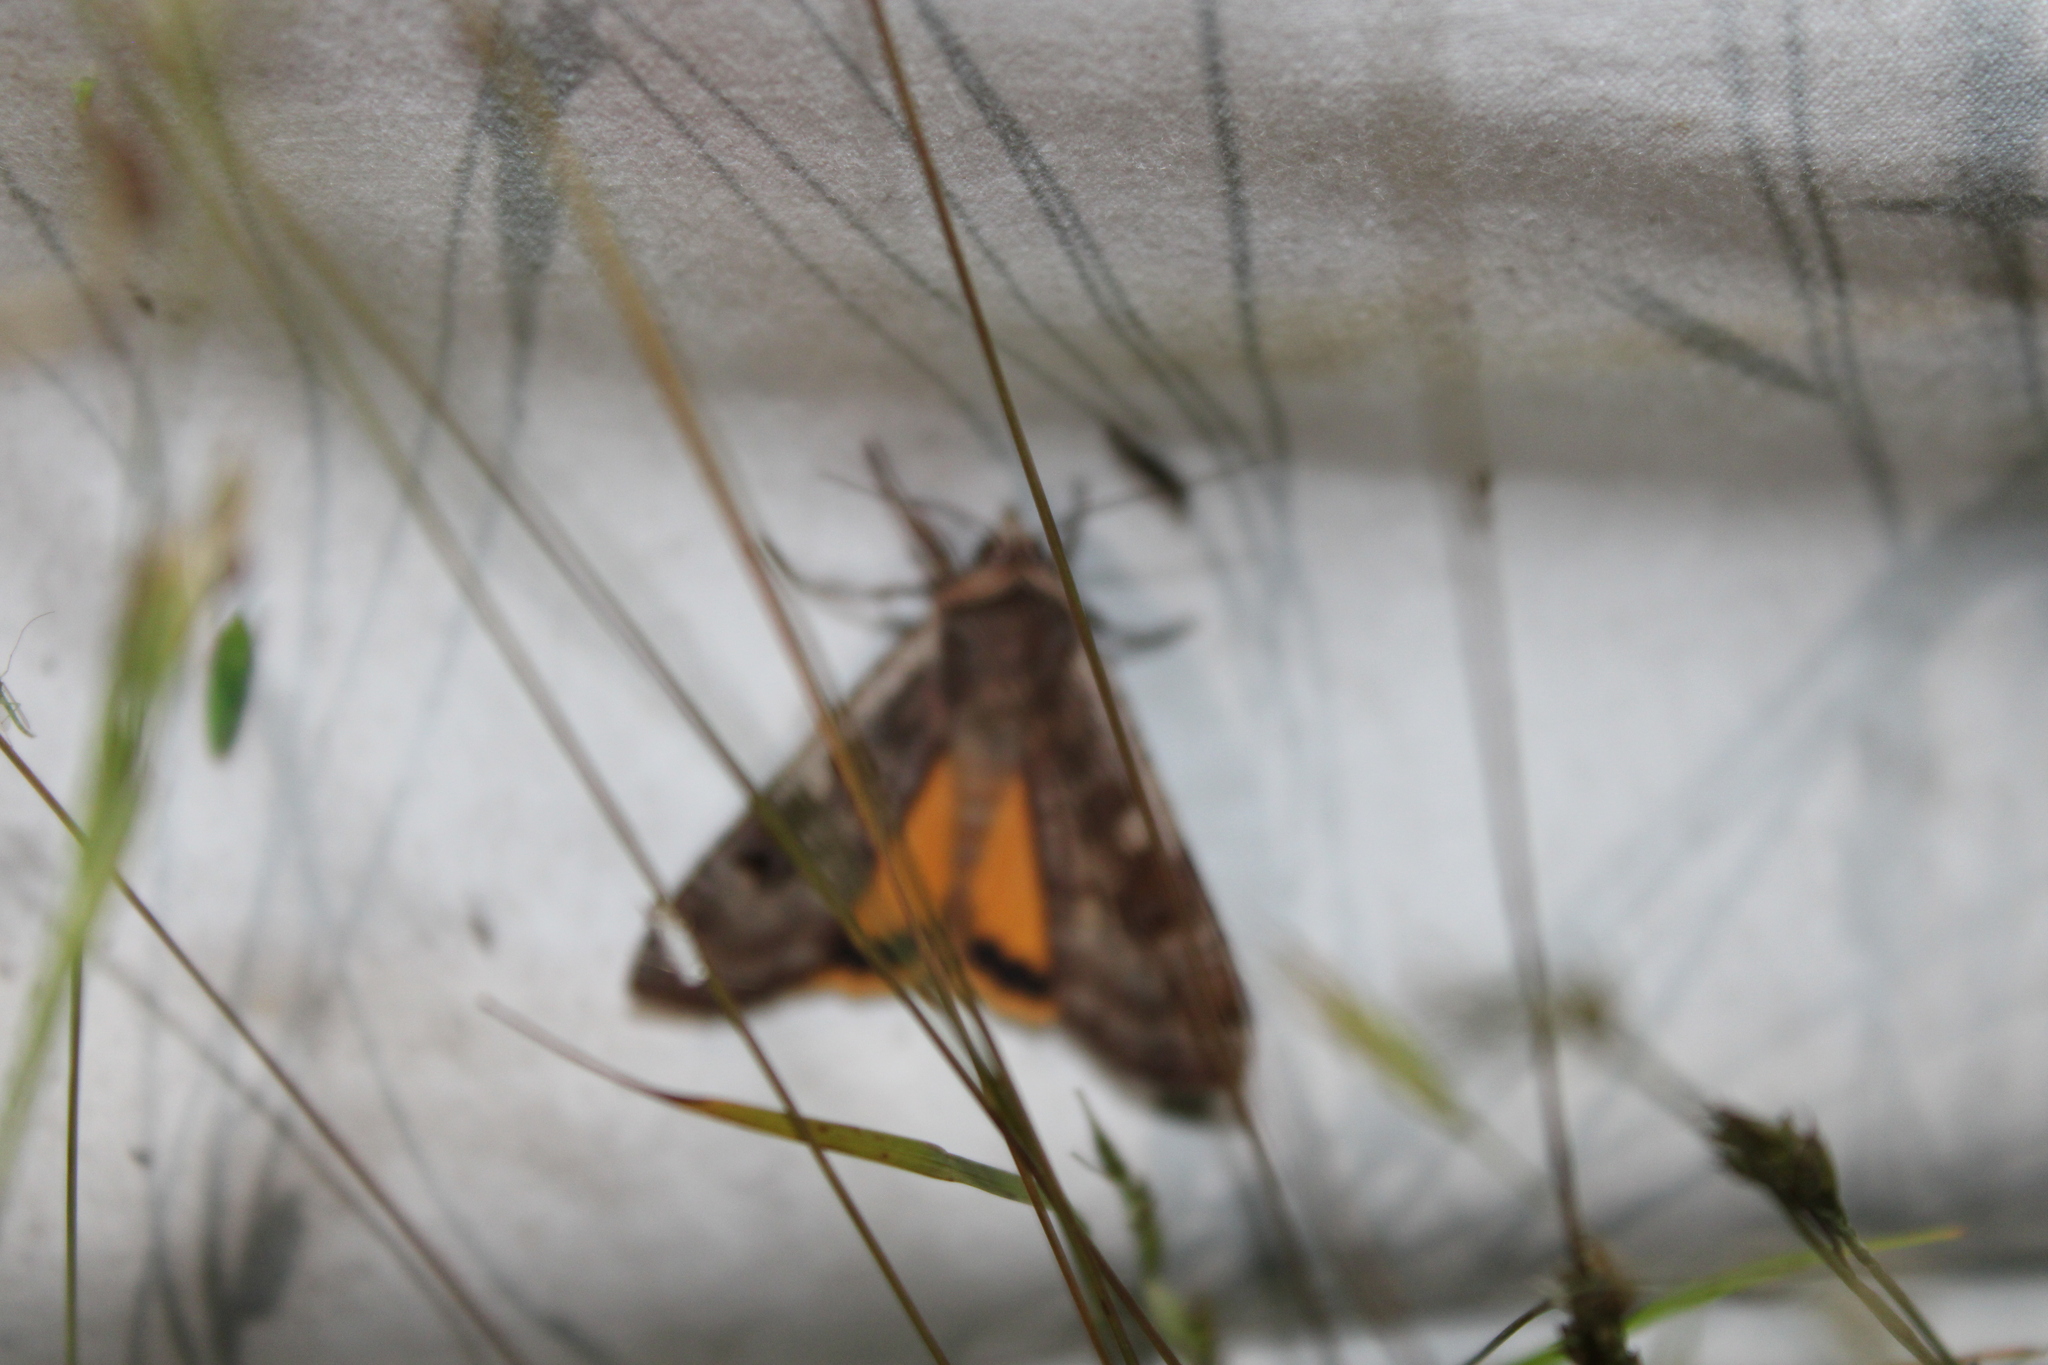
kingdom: Animalia
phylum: Arthropoda
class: Insecta
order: Lepidoptera
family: Noctuidae
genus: Noctua
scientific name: Noctua pronuba
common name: Large yellow underwing
